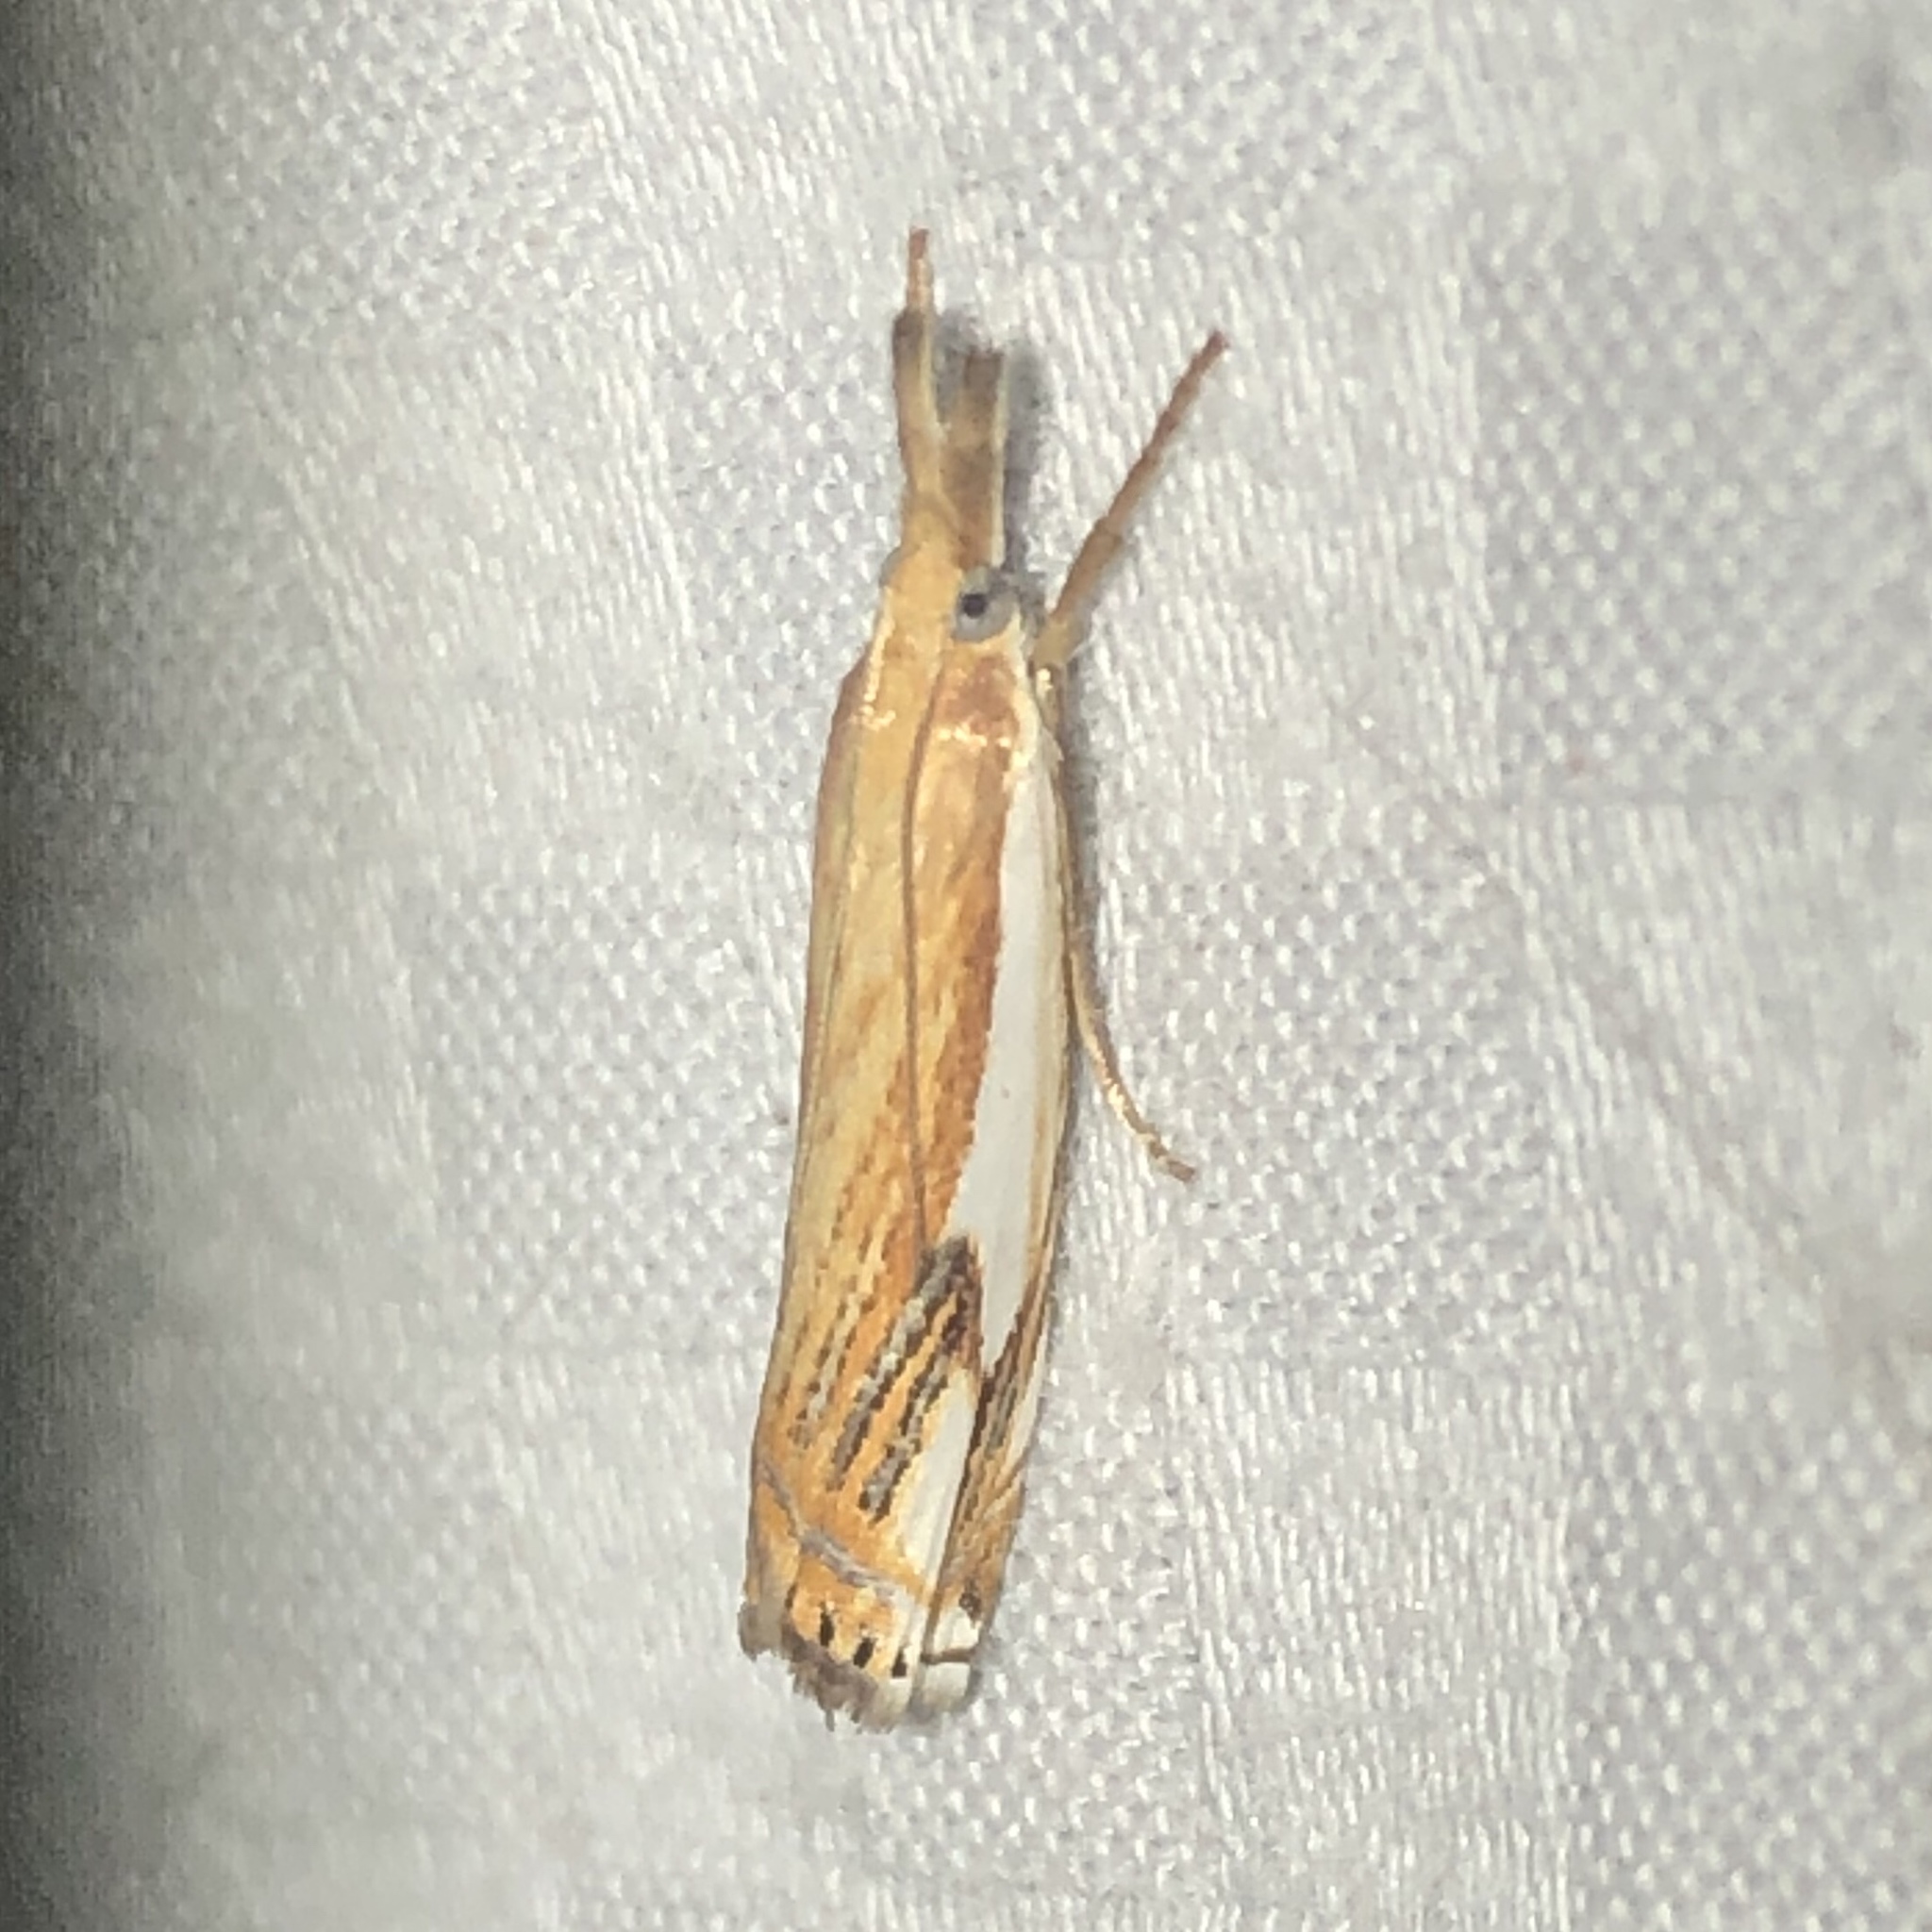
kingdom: Animalia
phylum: Arthropoda
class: Insecta
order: Lepidoptera
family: Crambidae
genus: Crambus
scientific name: Crambus agitatellus
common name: Double-banded grass-veneer
